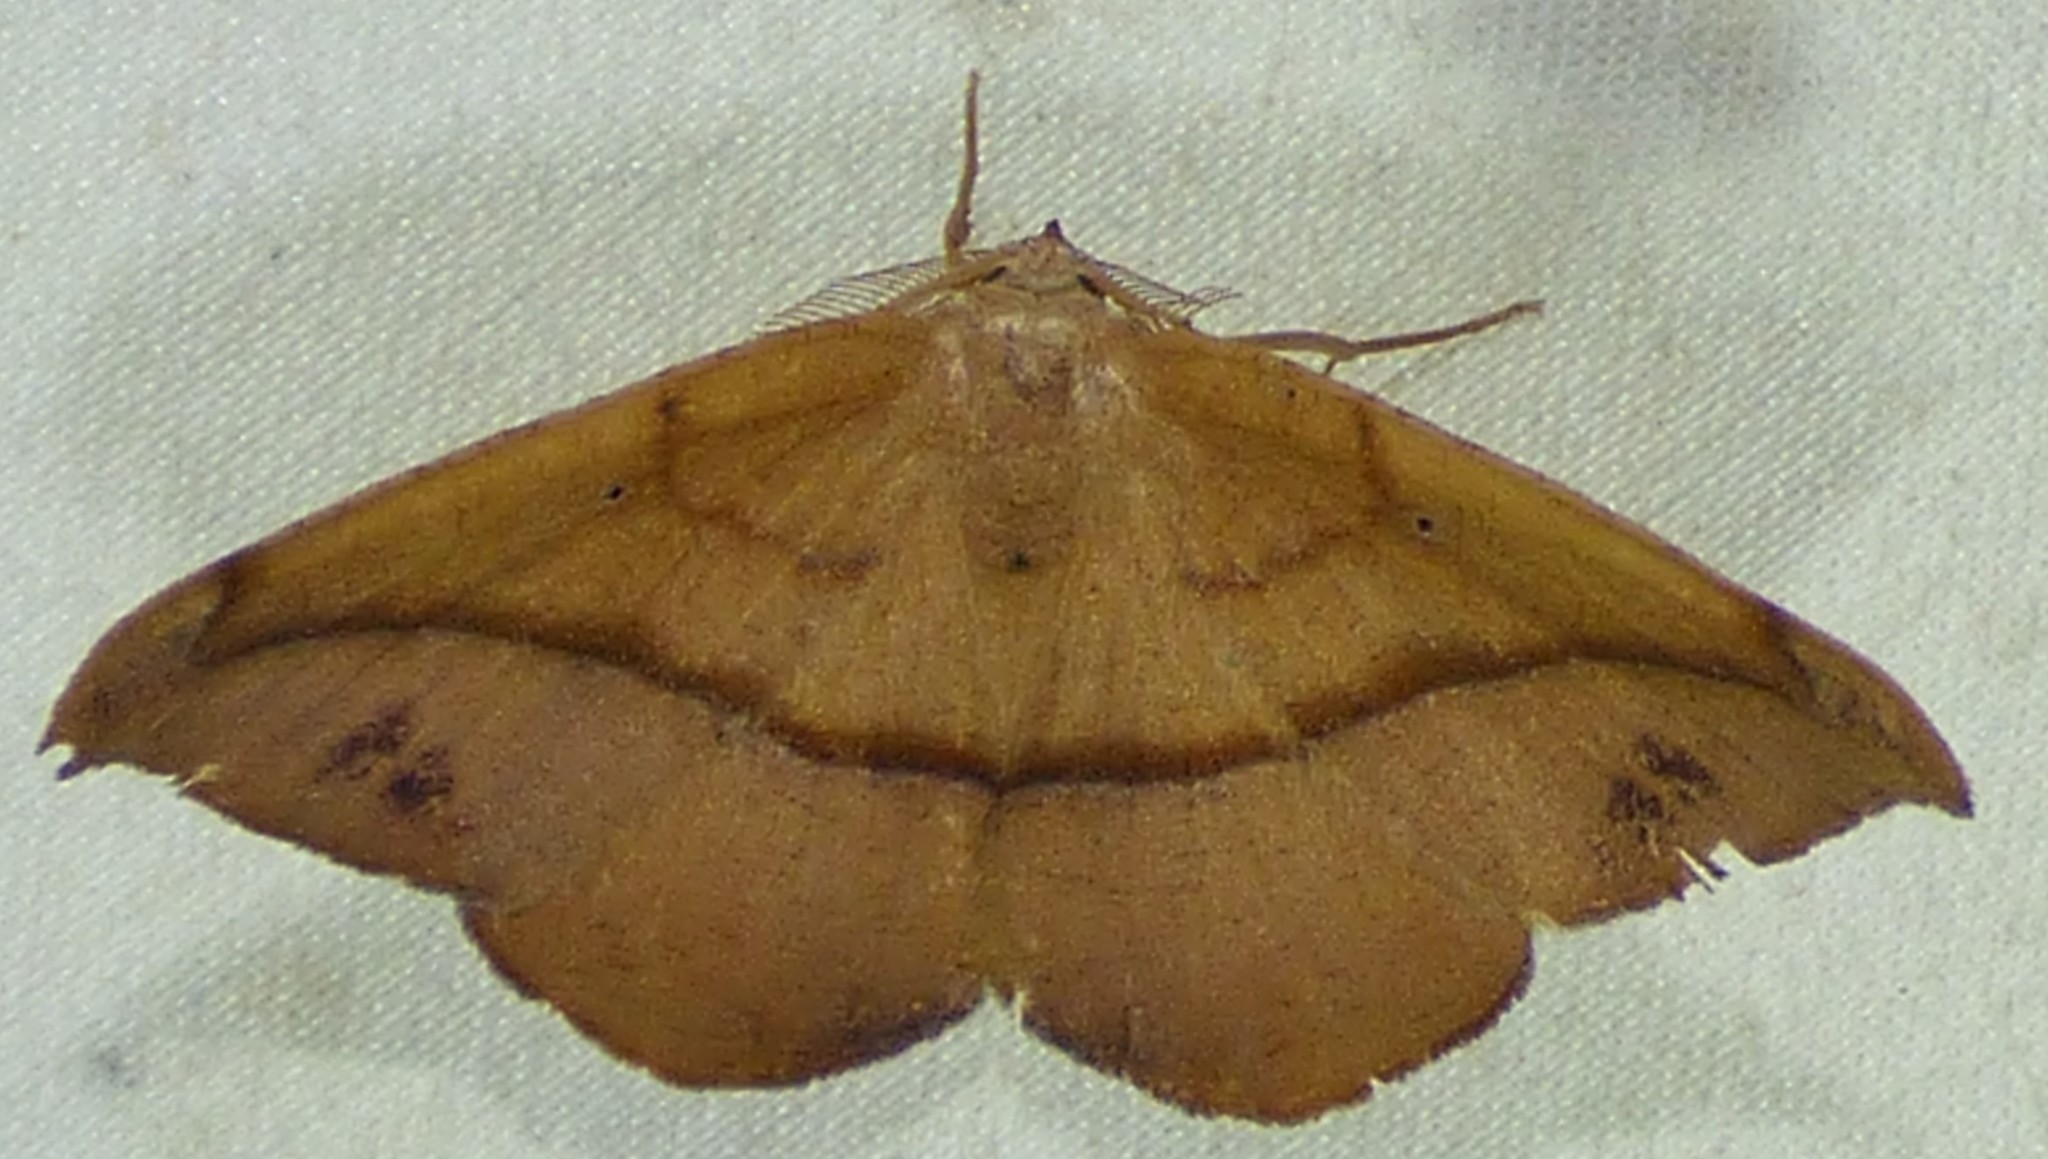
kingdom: Animalia
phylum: Arthropoda
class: Insecta
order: Lepidoptera
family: Geometridae
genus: Patalene
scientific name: Patalene olyzonaria
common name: Juniper geometer moth
